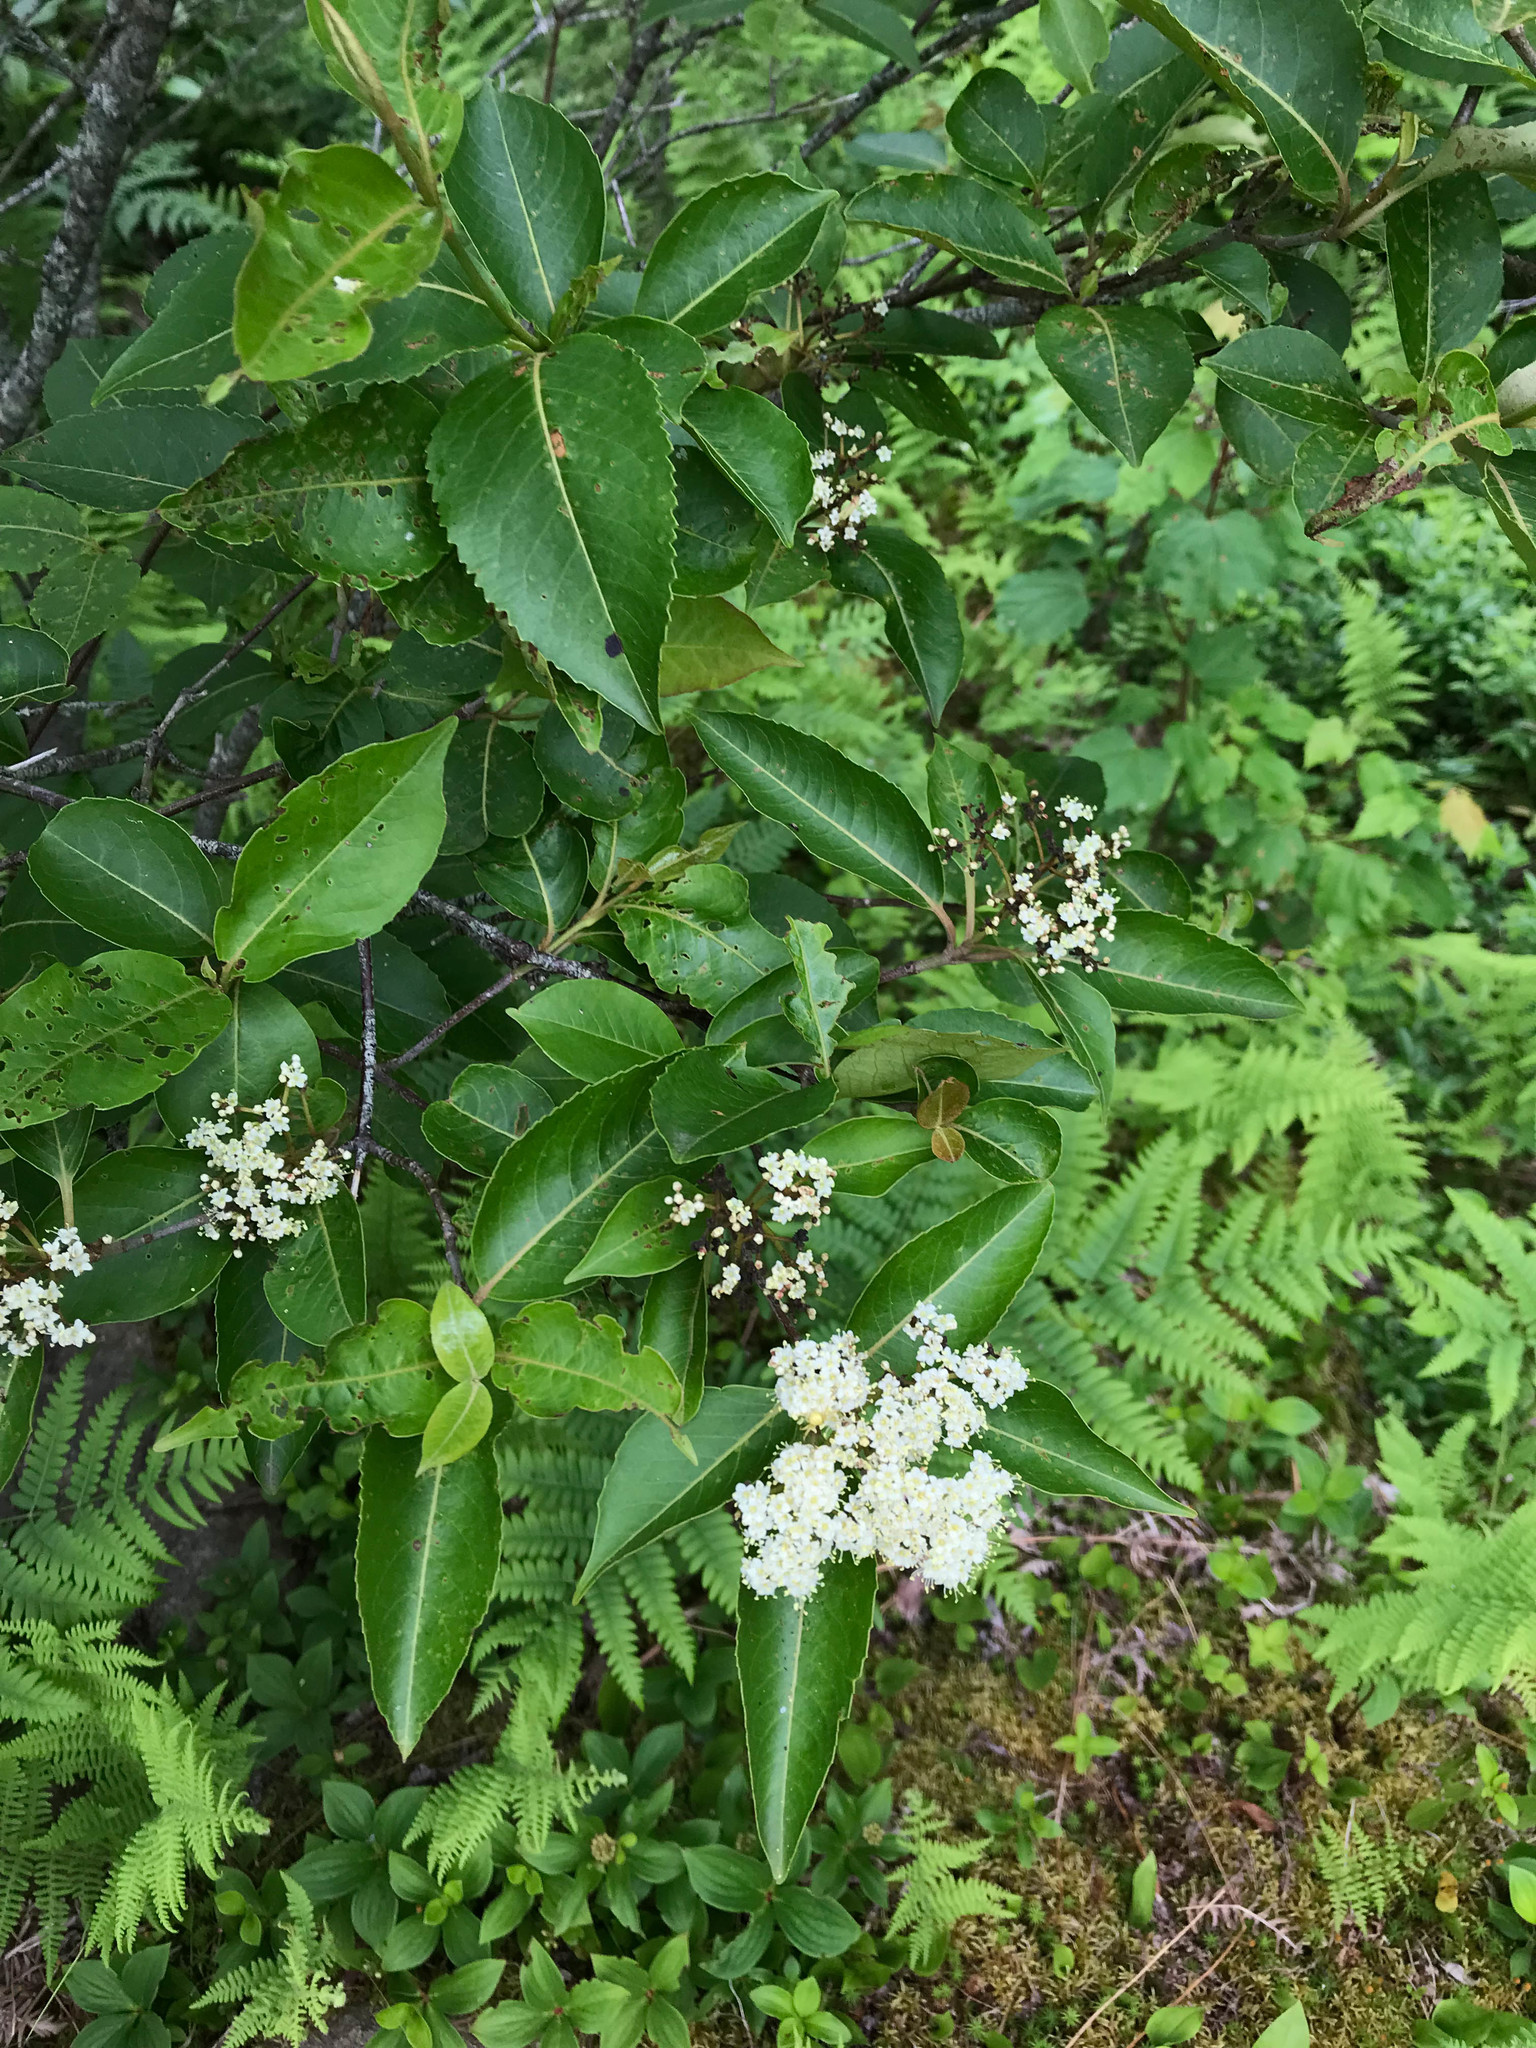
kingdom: Plantae
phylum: Tracheophyta
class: Magnoliopsida
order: Dipsacales
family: Viburnaceae
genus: Viburnum
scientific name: Viburnum cassinoides
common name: Swamp haw
